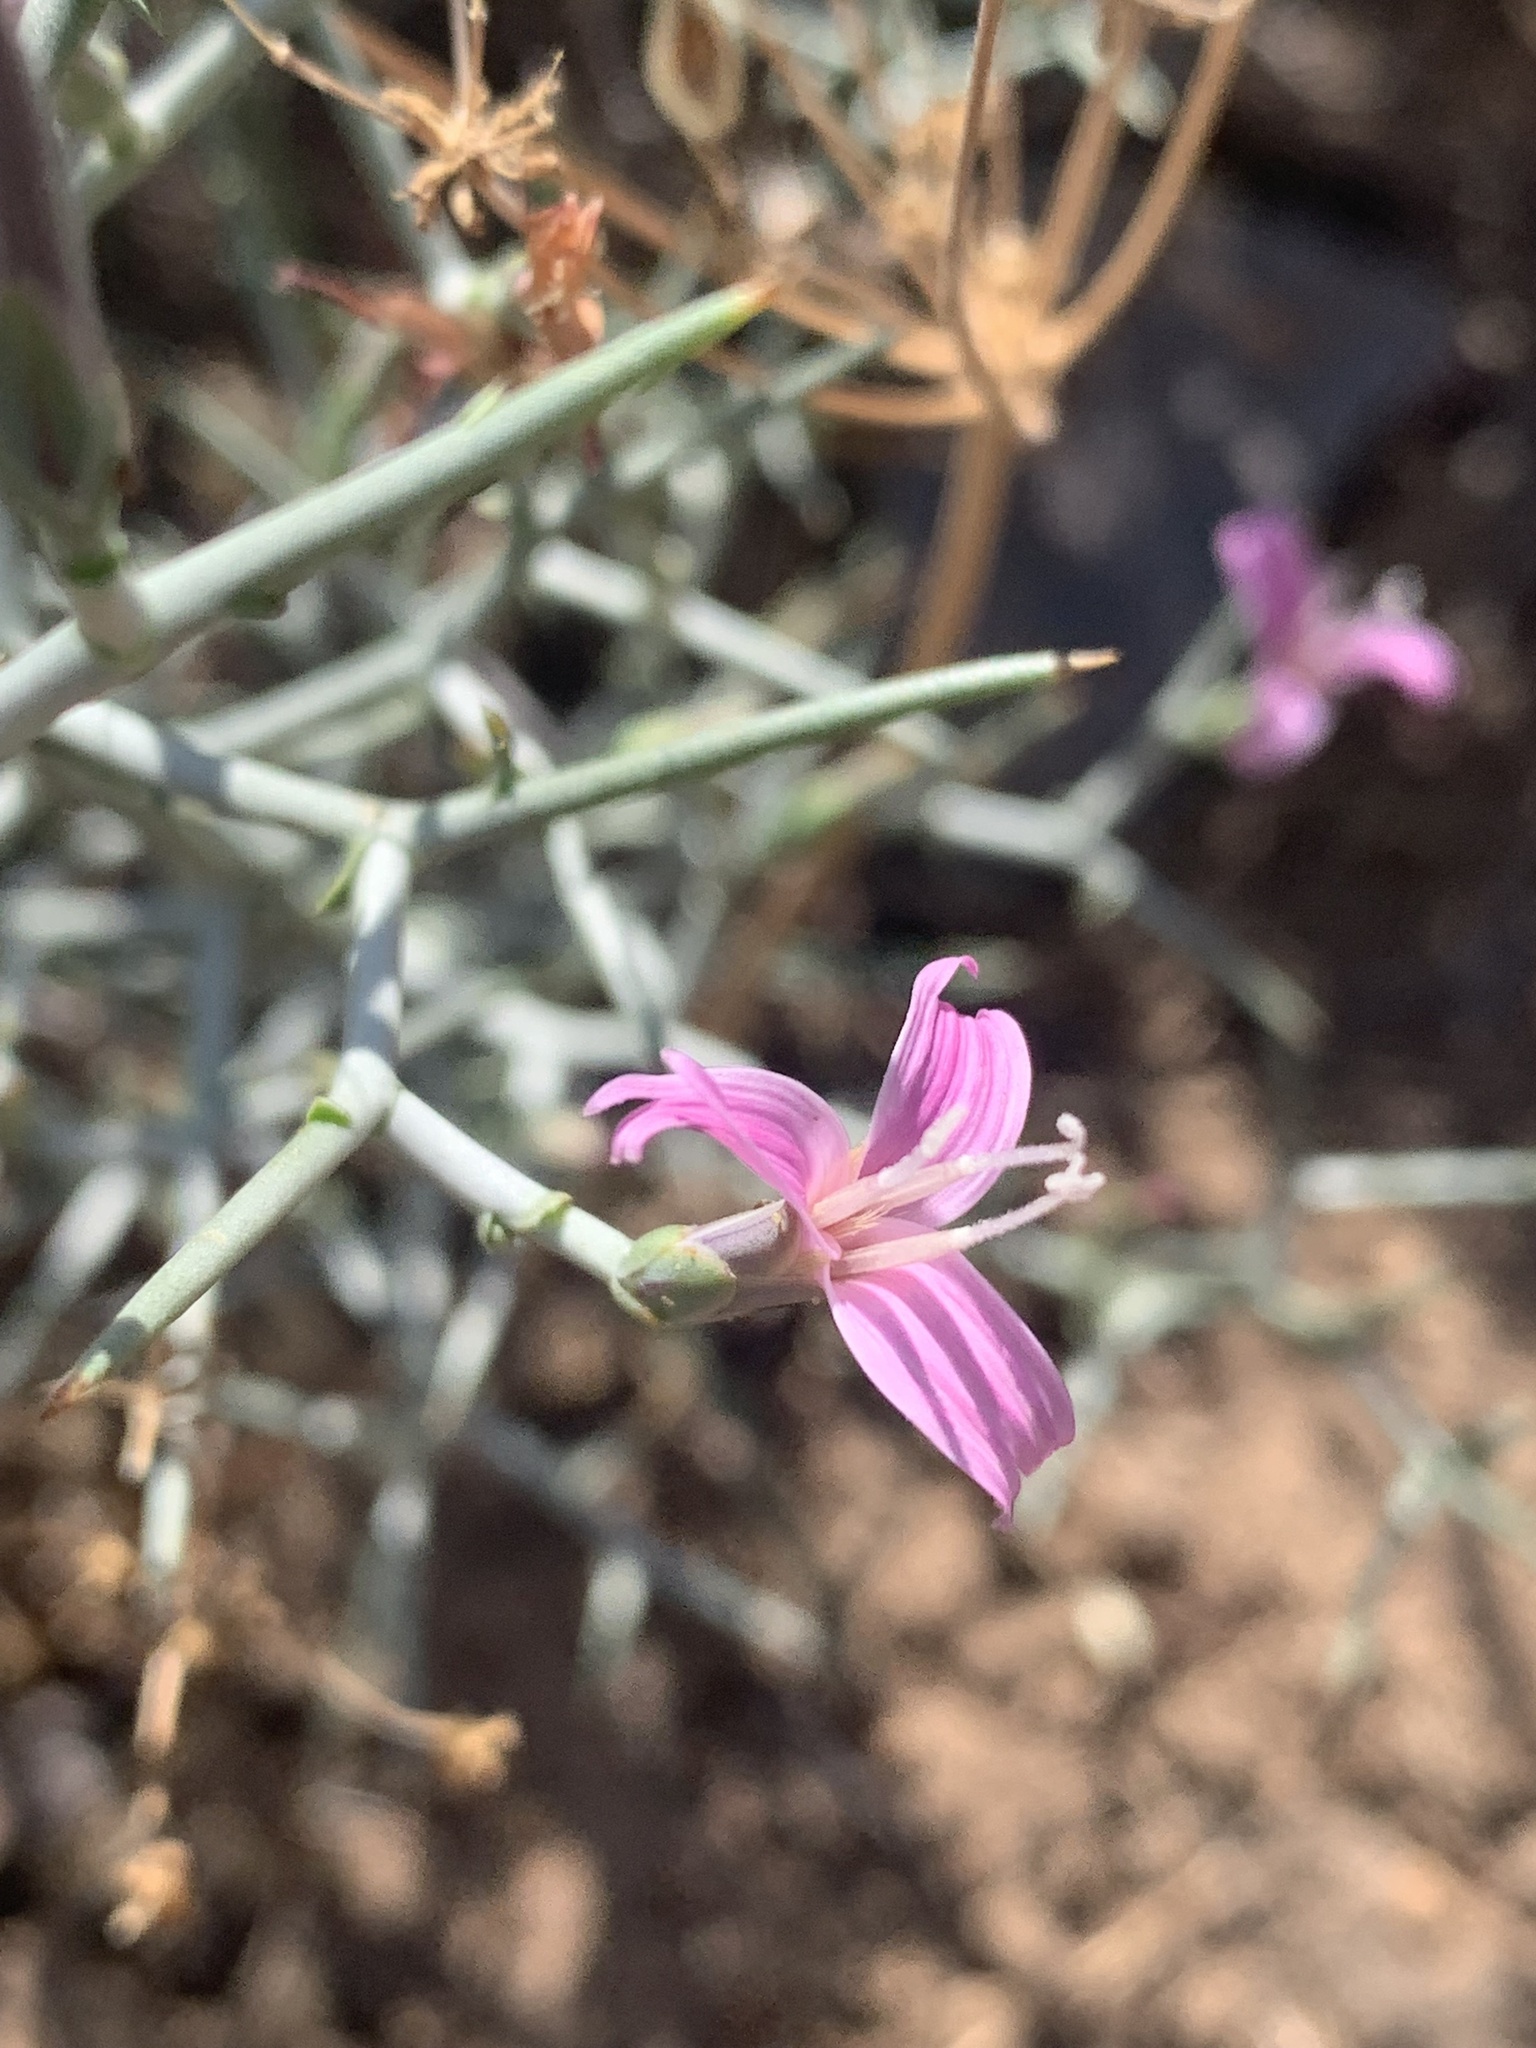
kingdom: Plantae
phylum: Tracheophyta
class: Magnoliopsida
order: Asterales
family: Asteraceae
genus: Pleiacanthus
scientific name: Pleiacanthus spinosus
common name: Thorny skeleton-weed
